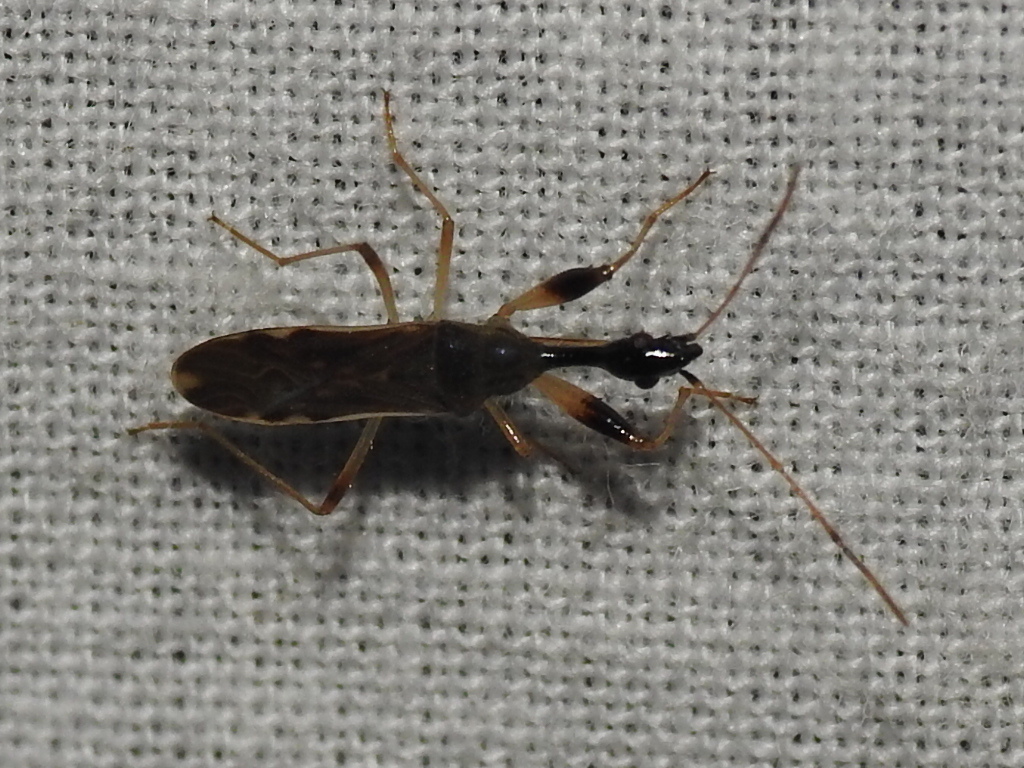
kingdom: Animalia
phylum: Arthropoda
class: Insecta
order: Hemiptera
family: Rhyparochromidae
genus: Myodocha
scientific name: Myodocha serripes
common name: Long-necked seed bug
